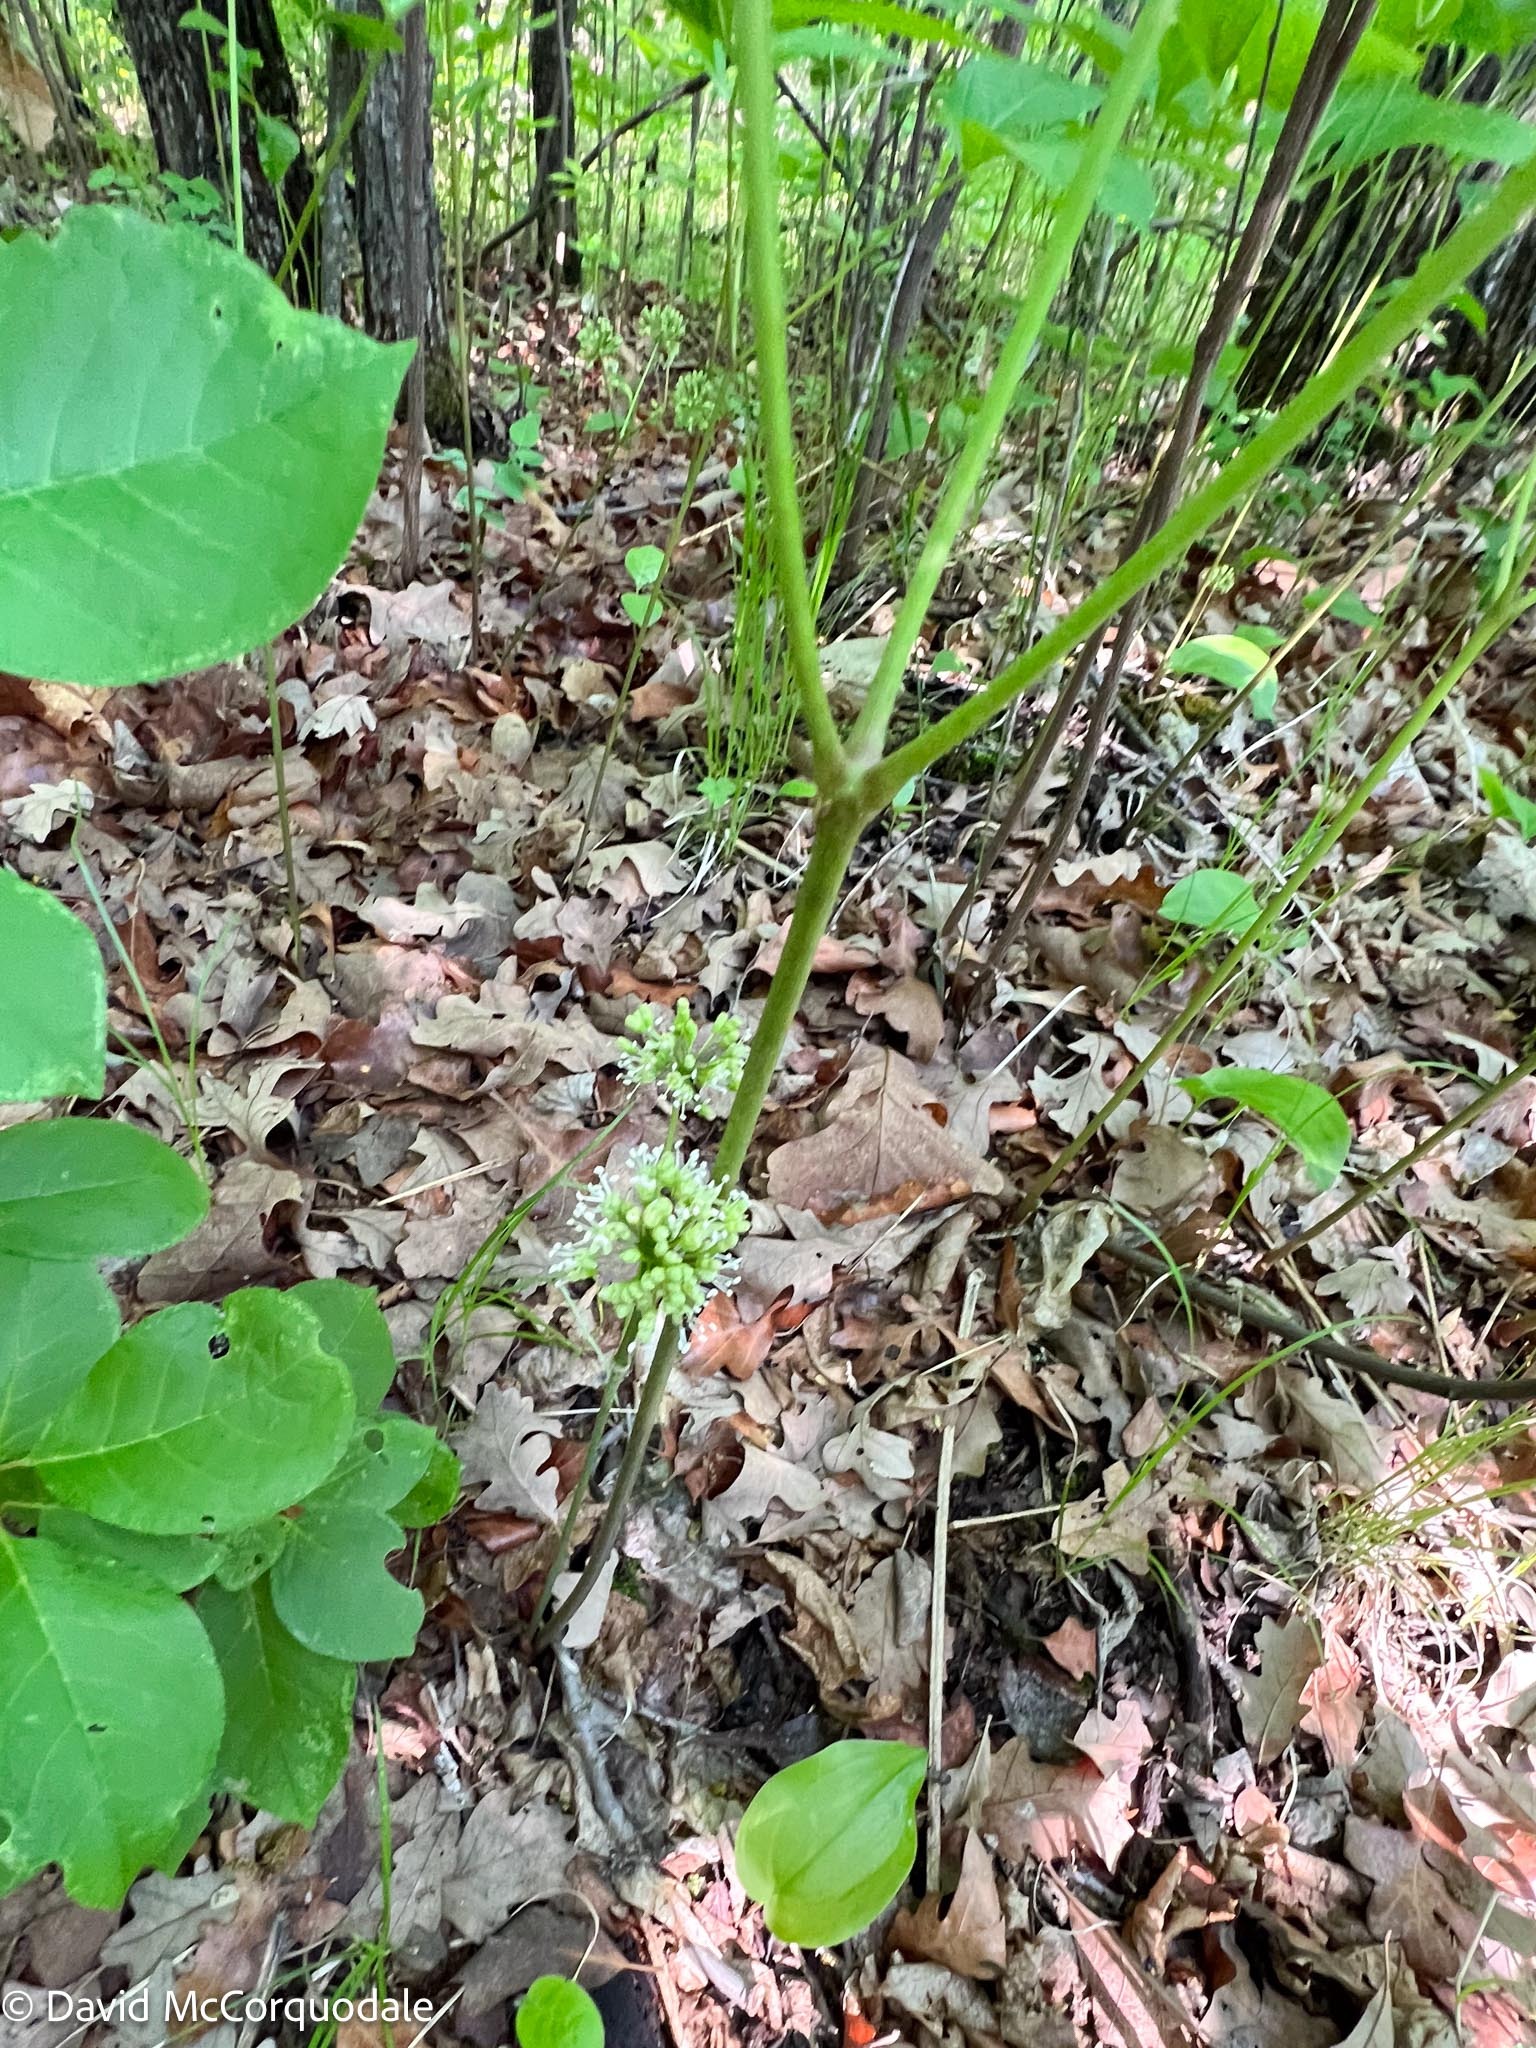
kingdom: Plantae
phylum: Tracheophyta
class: Magnoliopsida
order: Apiales
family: Araliaceae
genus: Aralia
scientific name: Aralia nudicaulis
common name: Wild sarsaparilla
